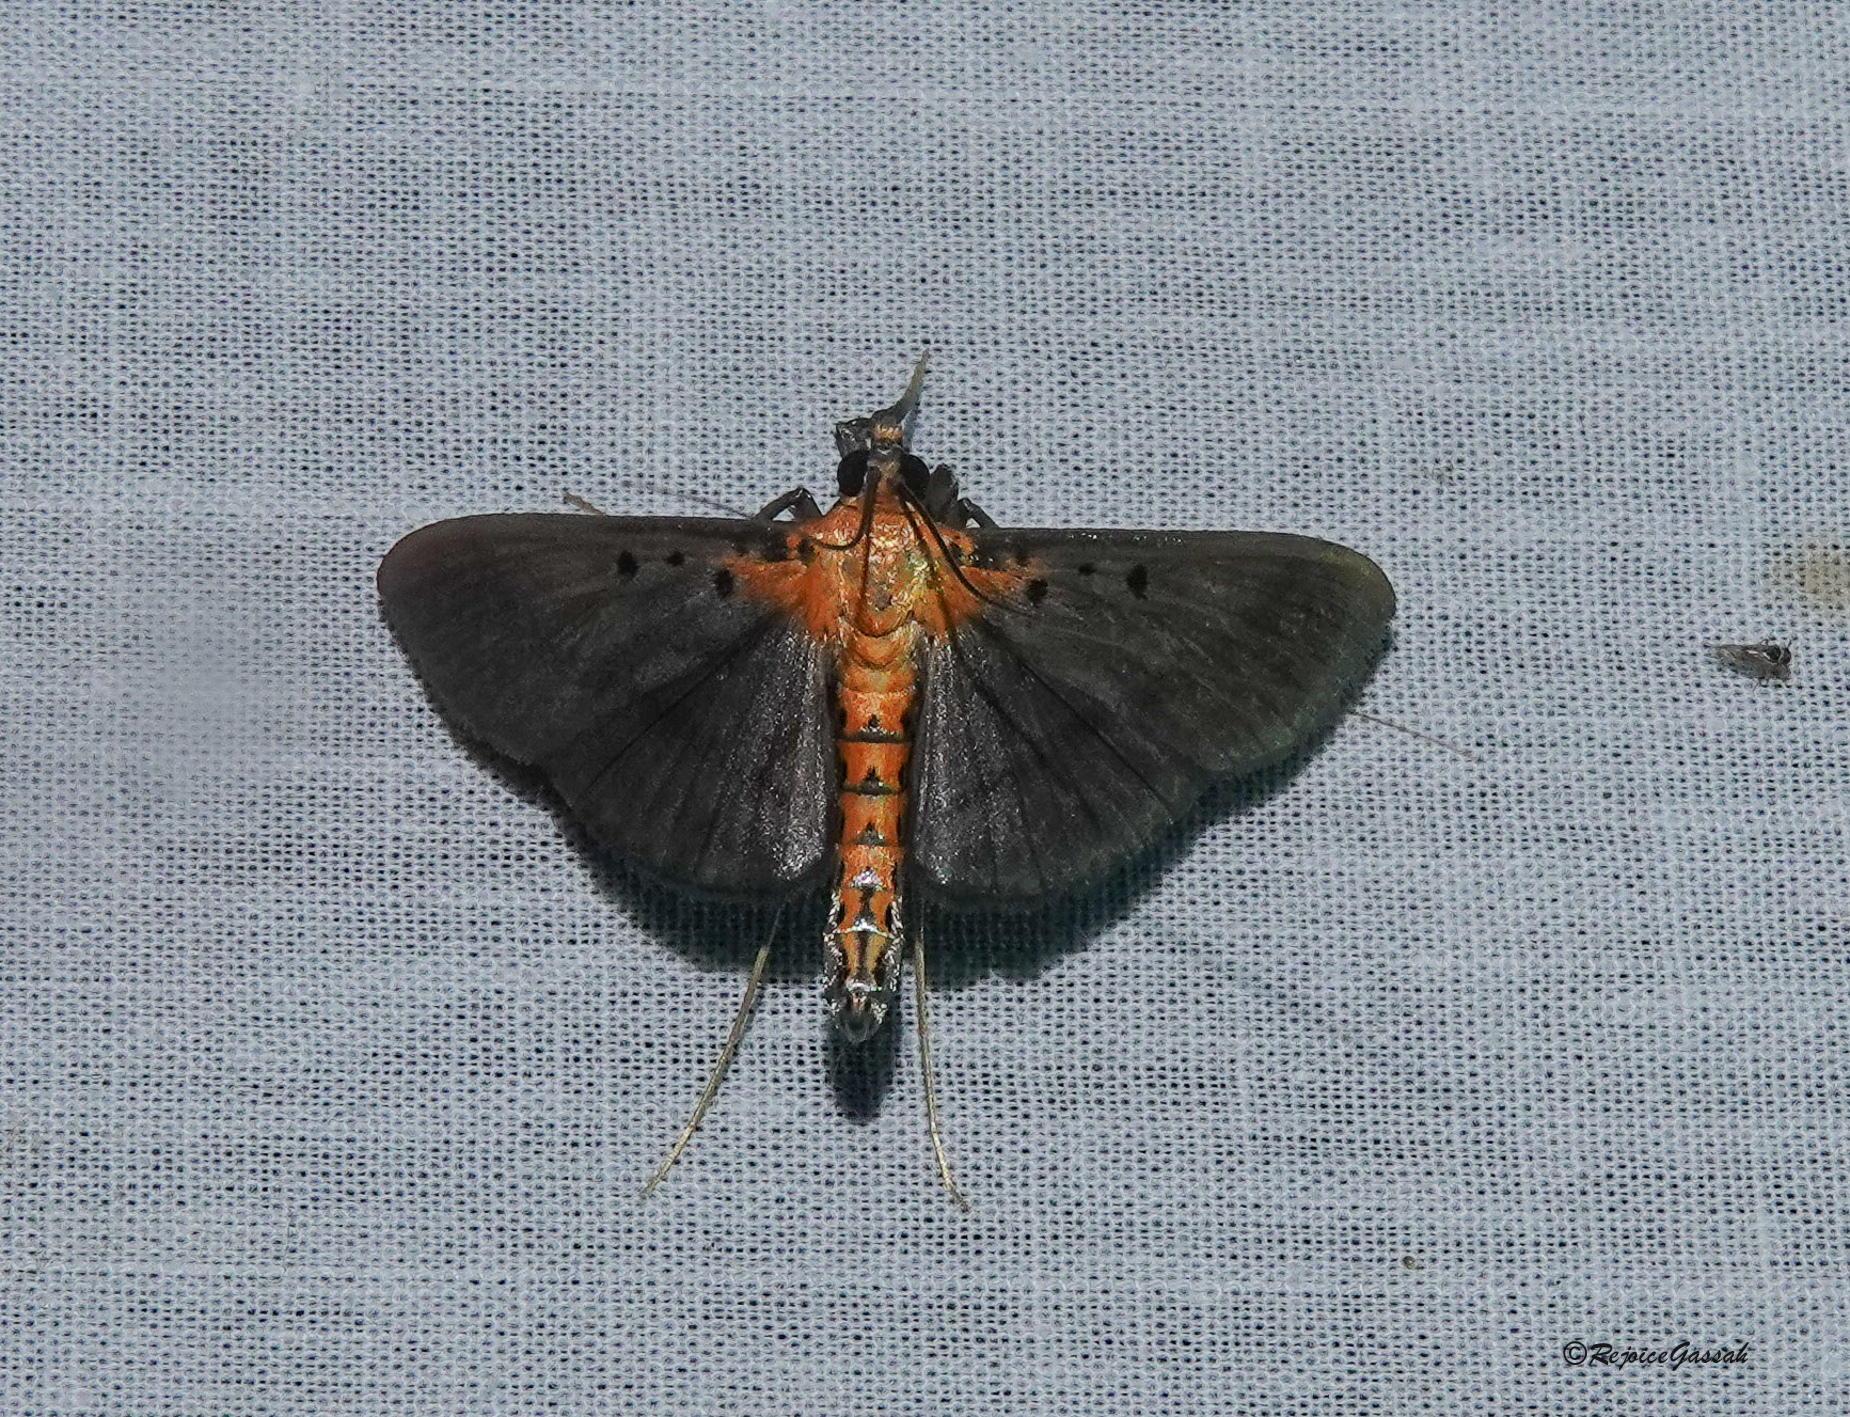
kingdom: Animalia
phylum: Arthropoda
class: Insecta
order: Lepidoptera
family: Crambidae
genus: Filodes
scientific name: Filodes fulvidorsalis
